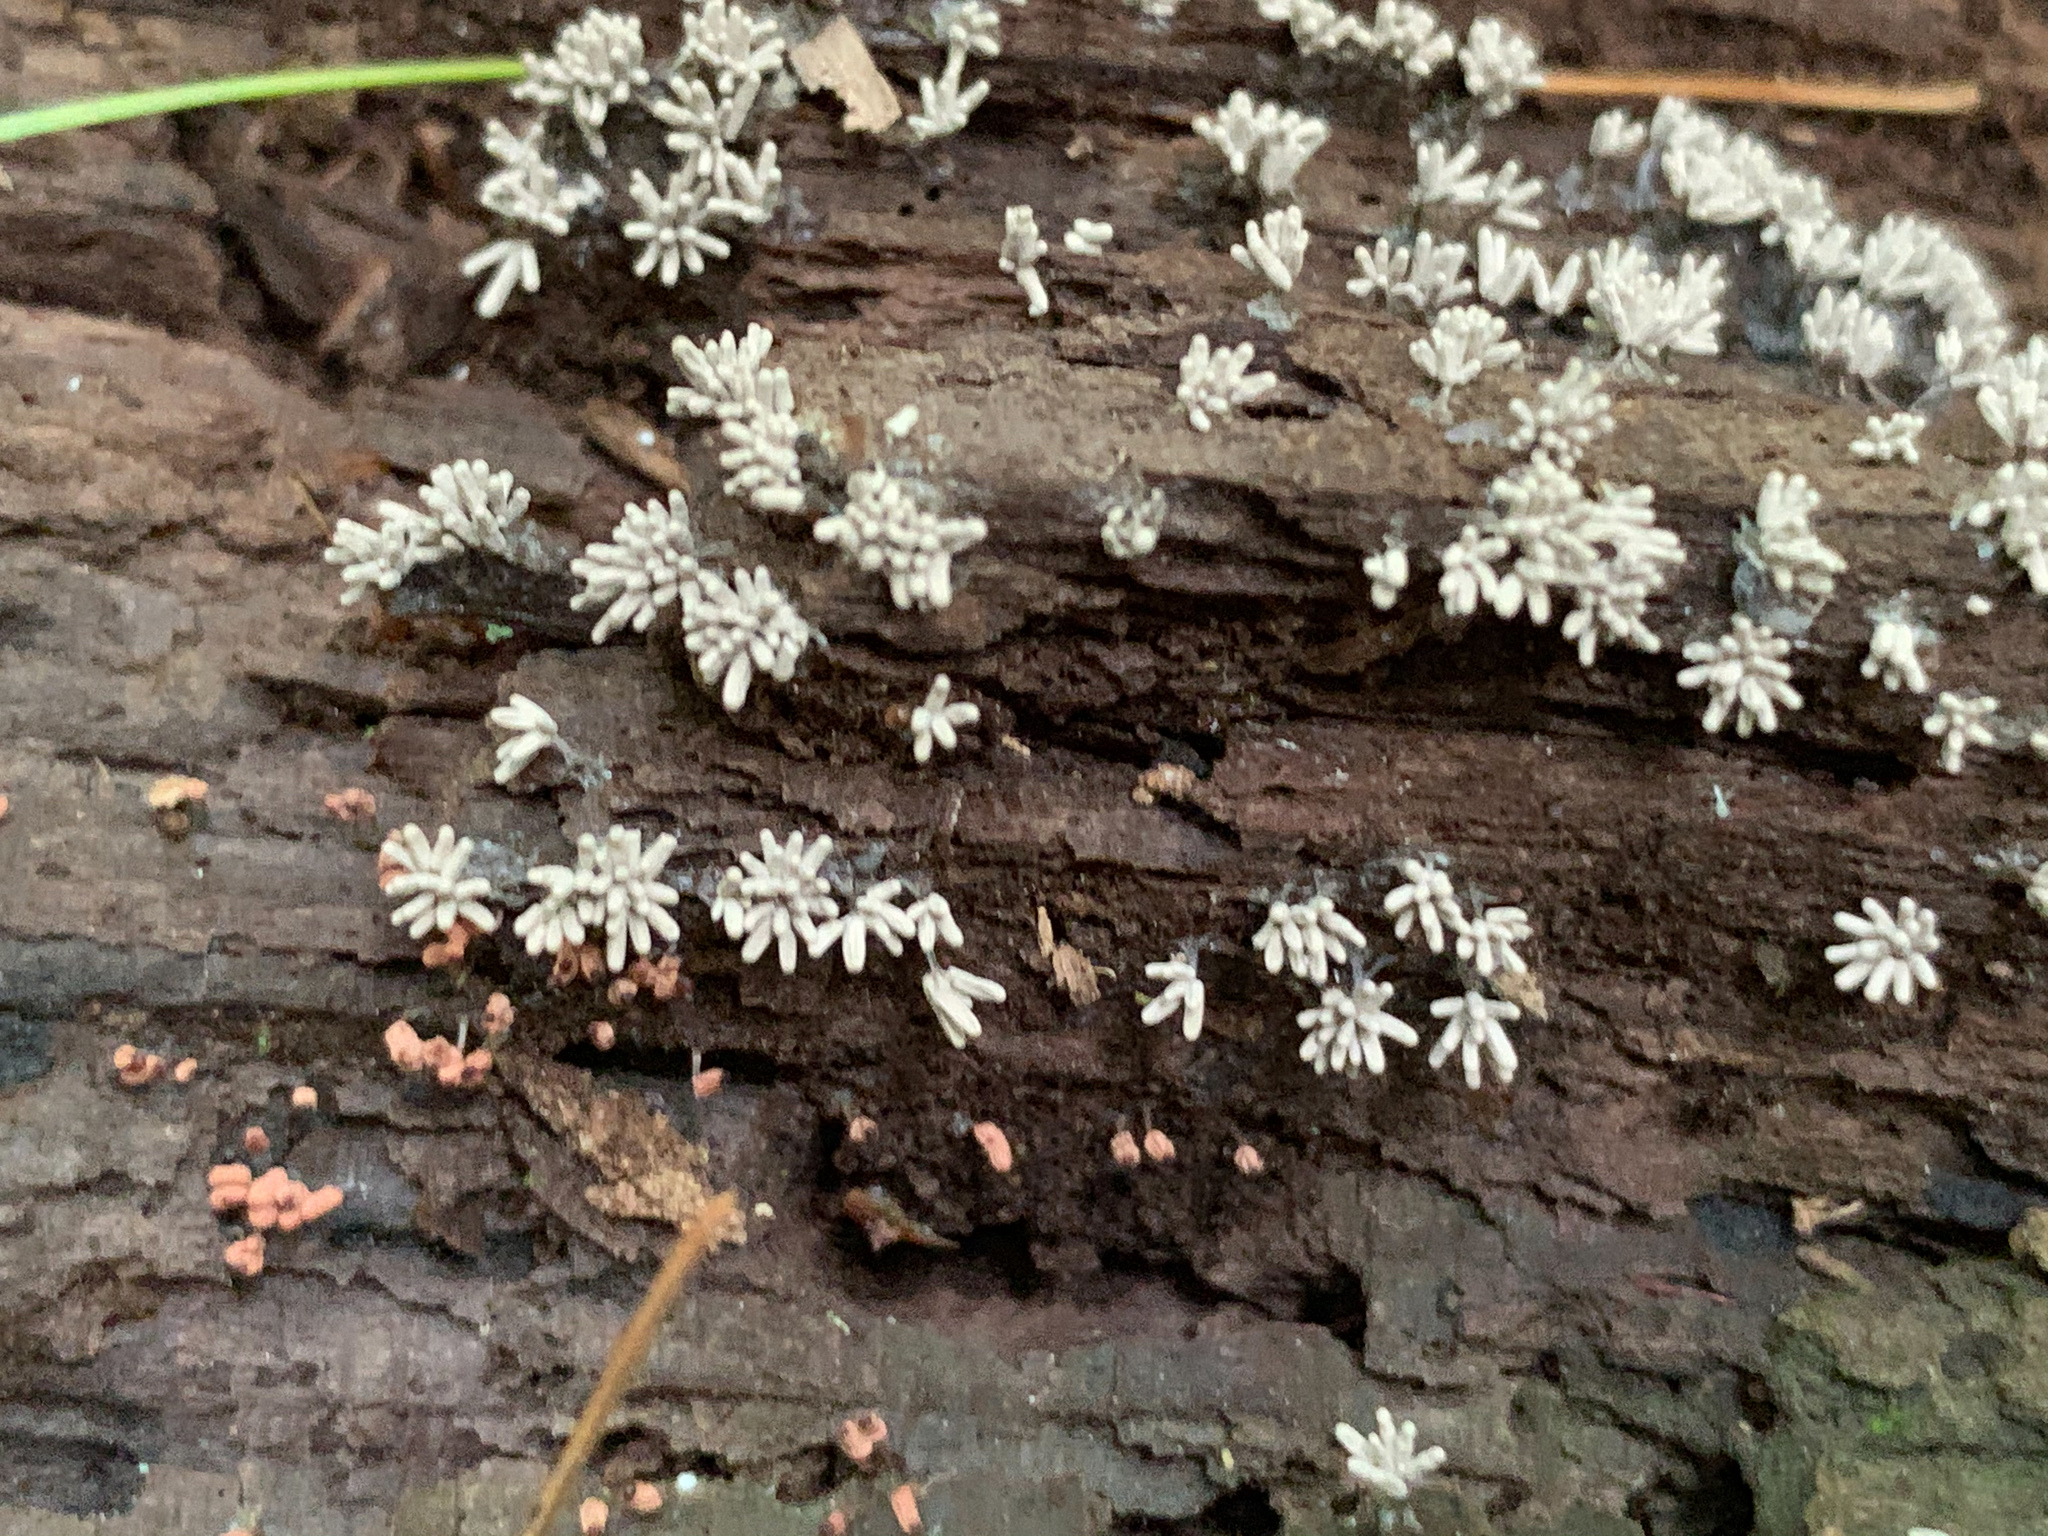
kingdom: Protozoa
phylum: Mycetozoa
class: Myxomycetes
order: Trichiales
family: Arcyriaceae
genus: Arcyria
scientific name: Arcyria cinerea
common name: White carnival candy slime mold
